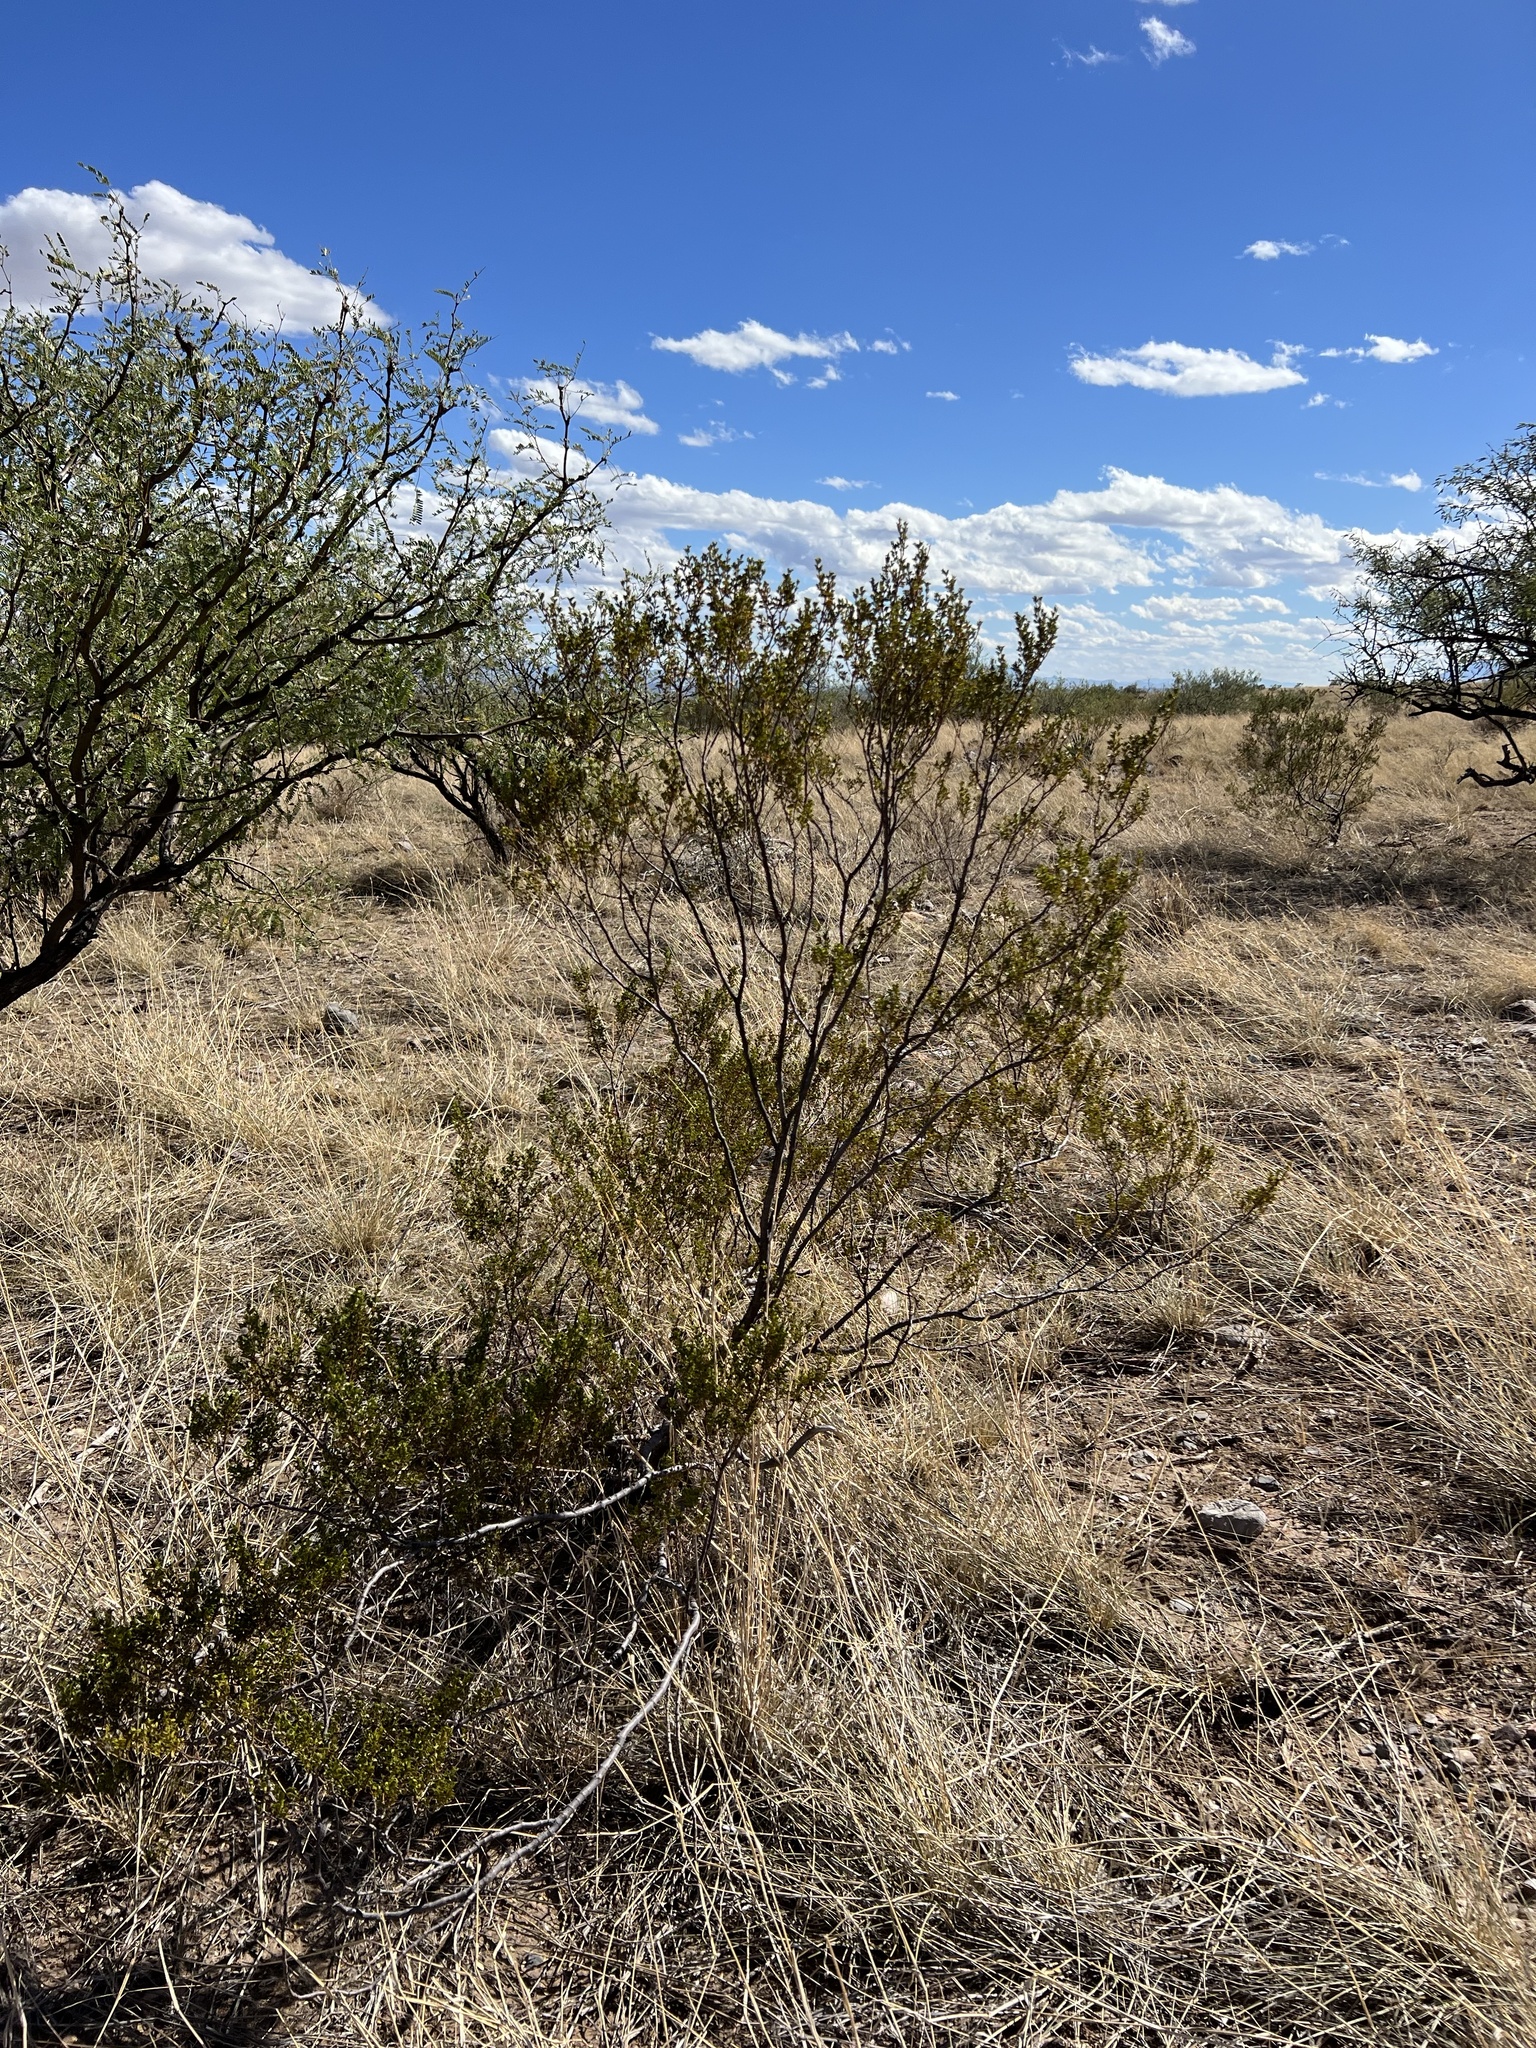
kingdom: Plantae
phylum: Tracheophyta
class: Magnoliopsida
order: Zygophyllales
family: Zygophyllaceae
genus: Larrea
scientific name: Larrea tridentata
